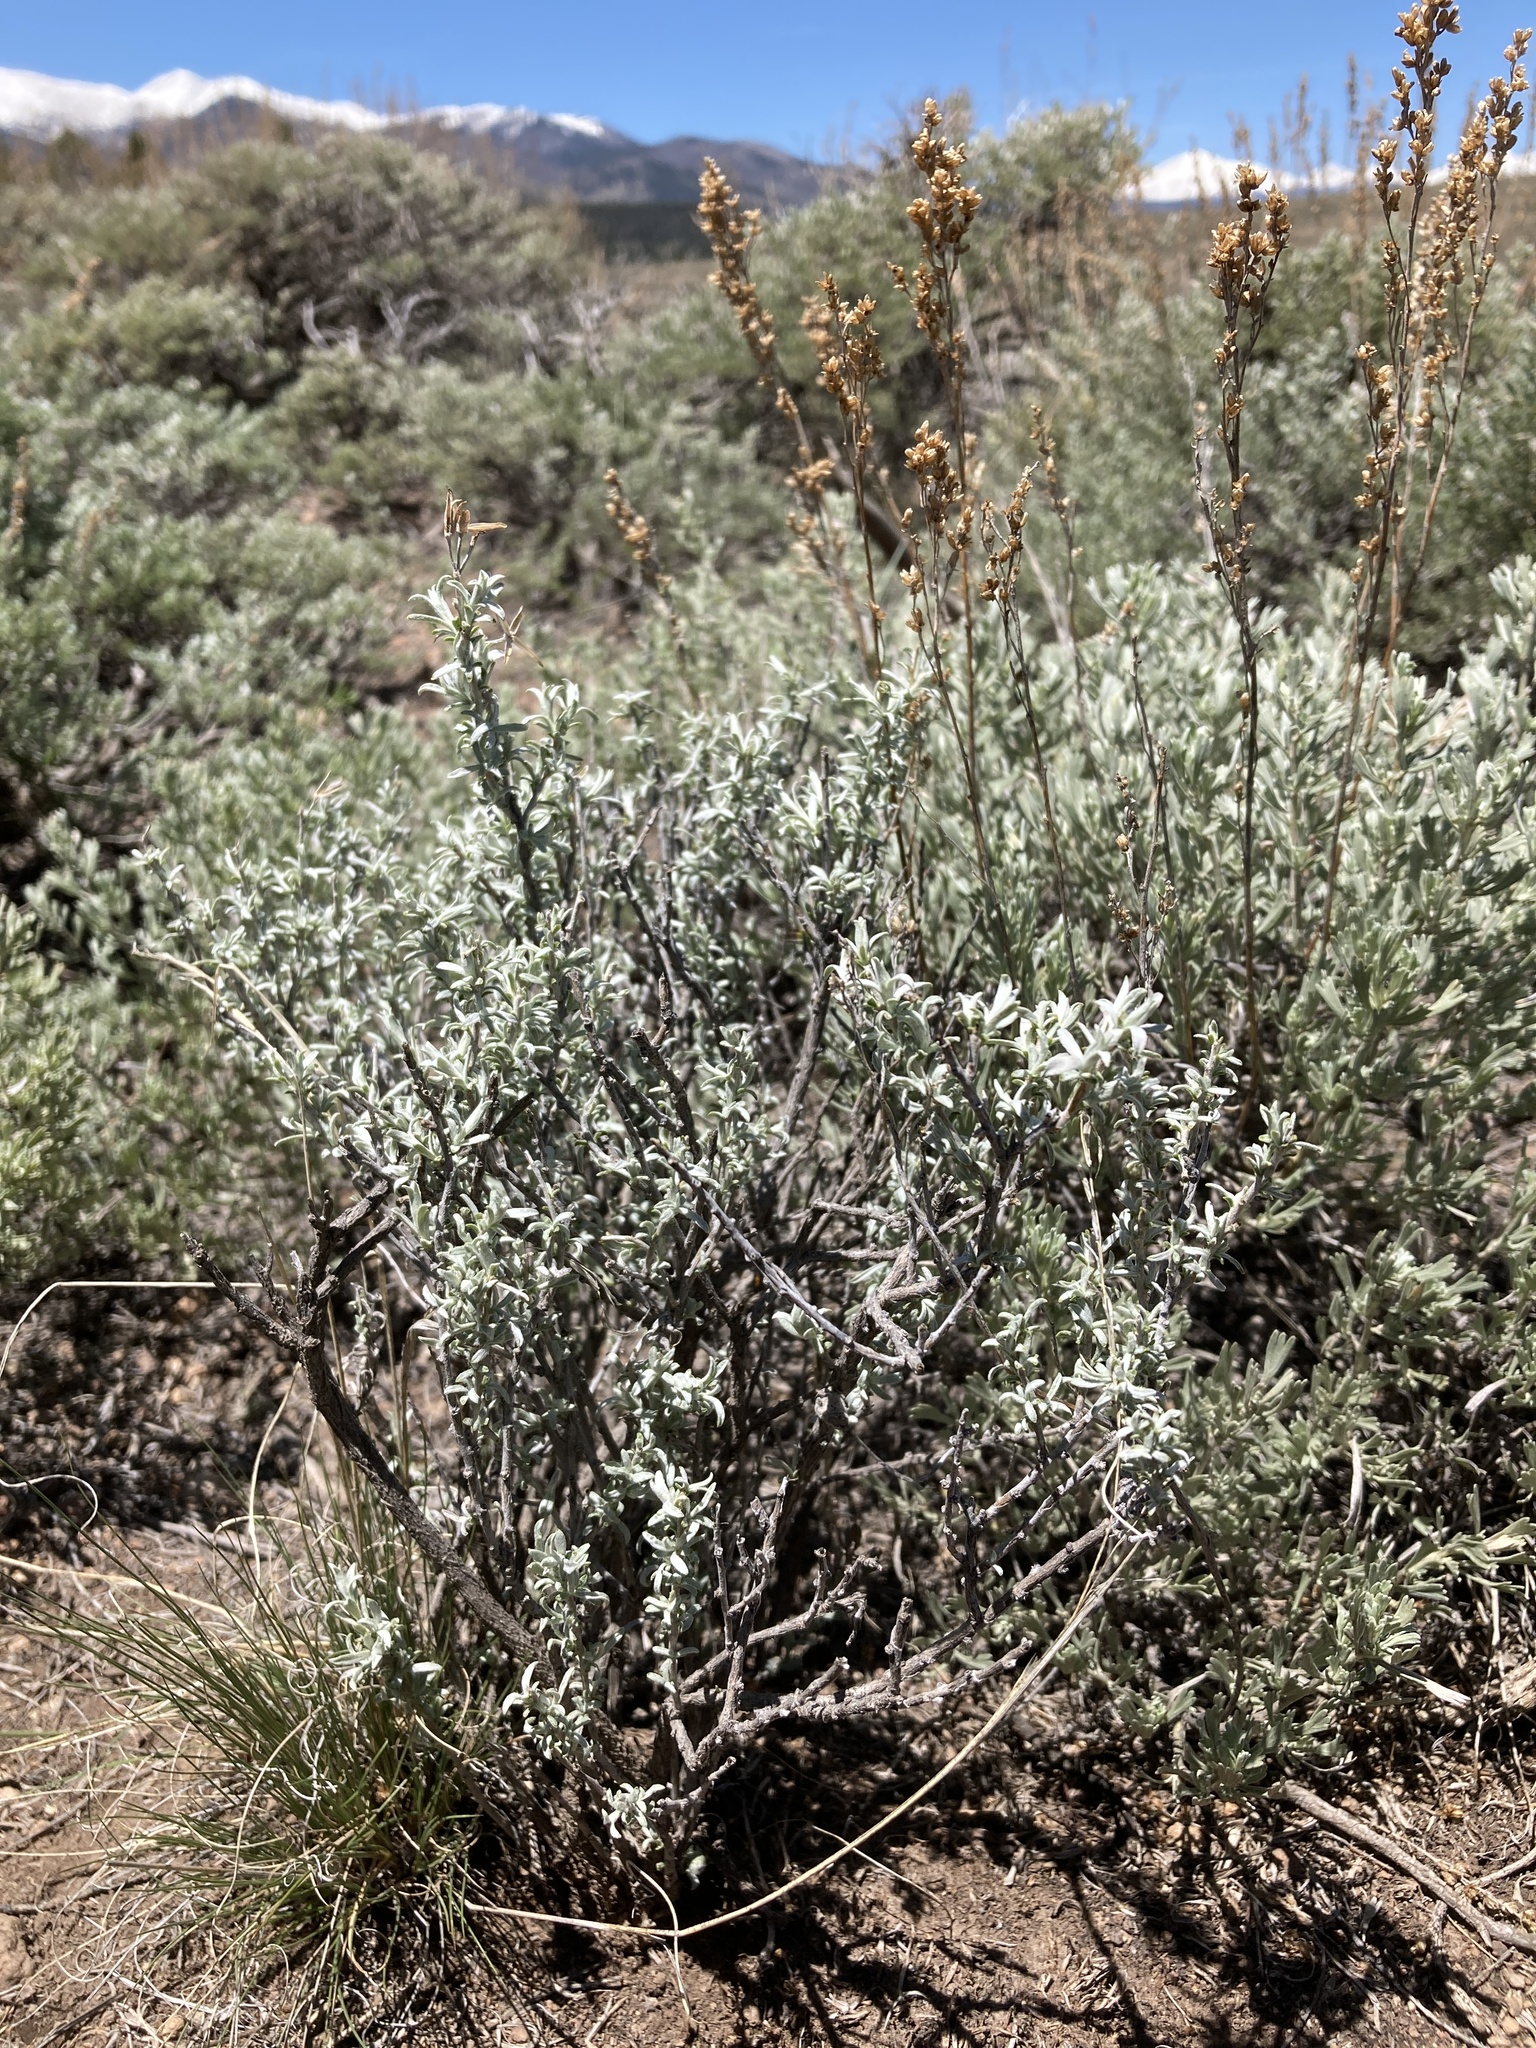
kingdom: Plantae
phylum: Tracheophyta
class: Magnoliopsida
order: Asterales
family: Asteraceae
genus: Tetradymia
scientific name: Tetradymia canescens
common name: Spineless horsebrush
